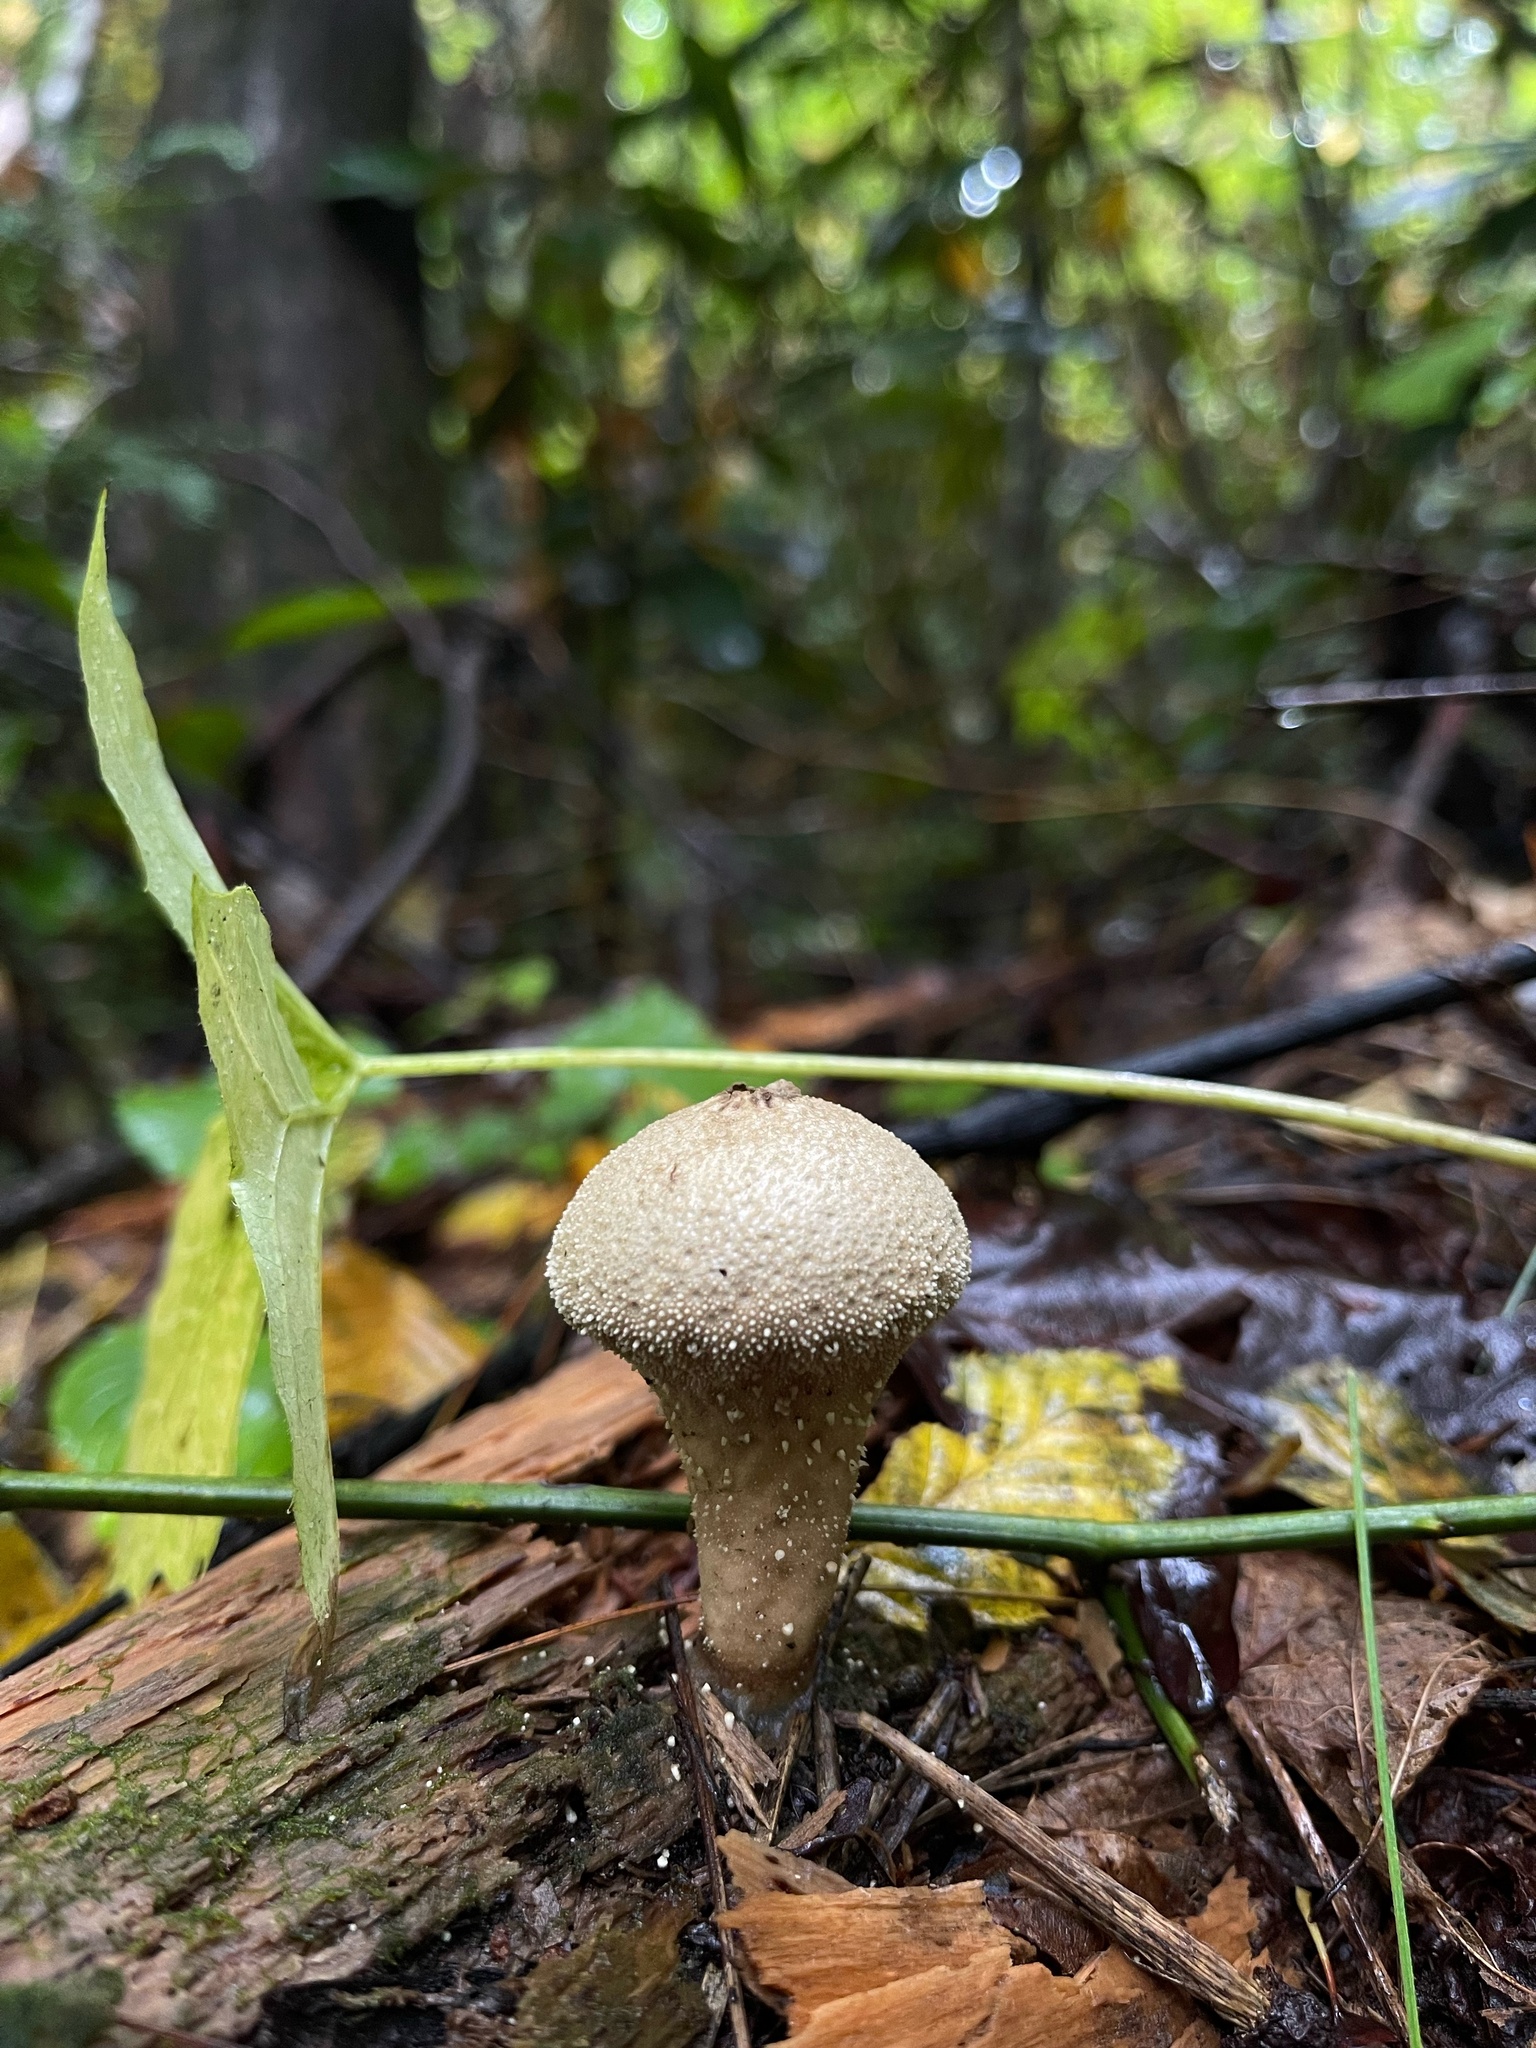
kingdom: Fungi
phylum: Basidiomycota
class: Agaricomycetes
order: Agaricales
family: Lycoperdaceae
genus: Lycoperdon
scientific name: Lycoperdon perlatum
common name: Common puffball
